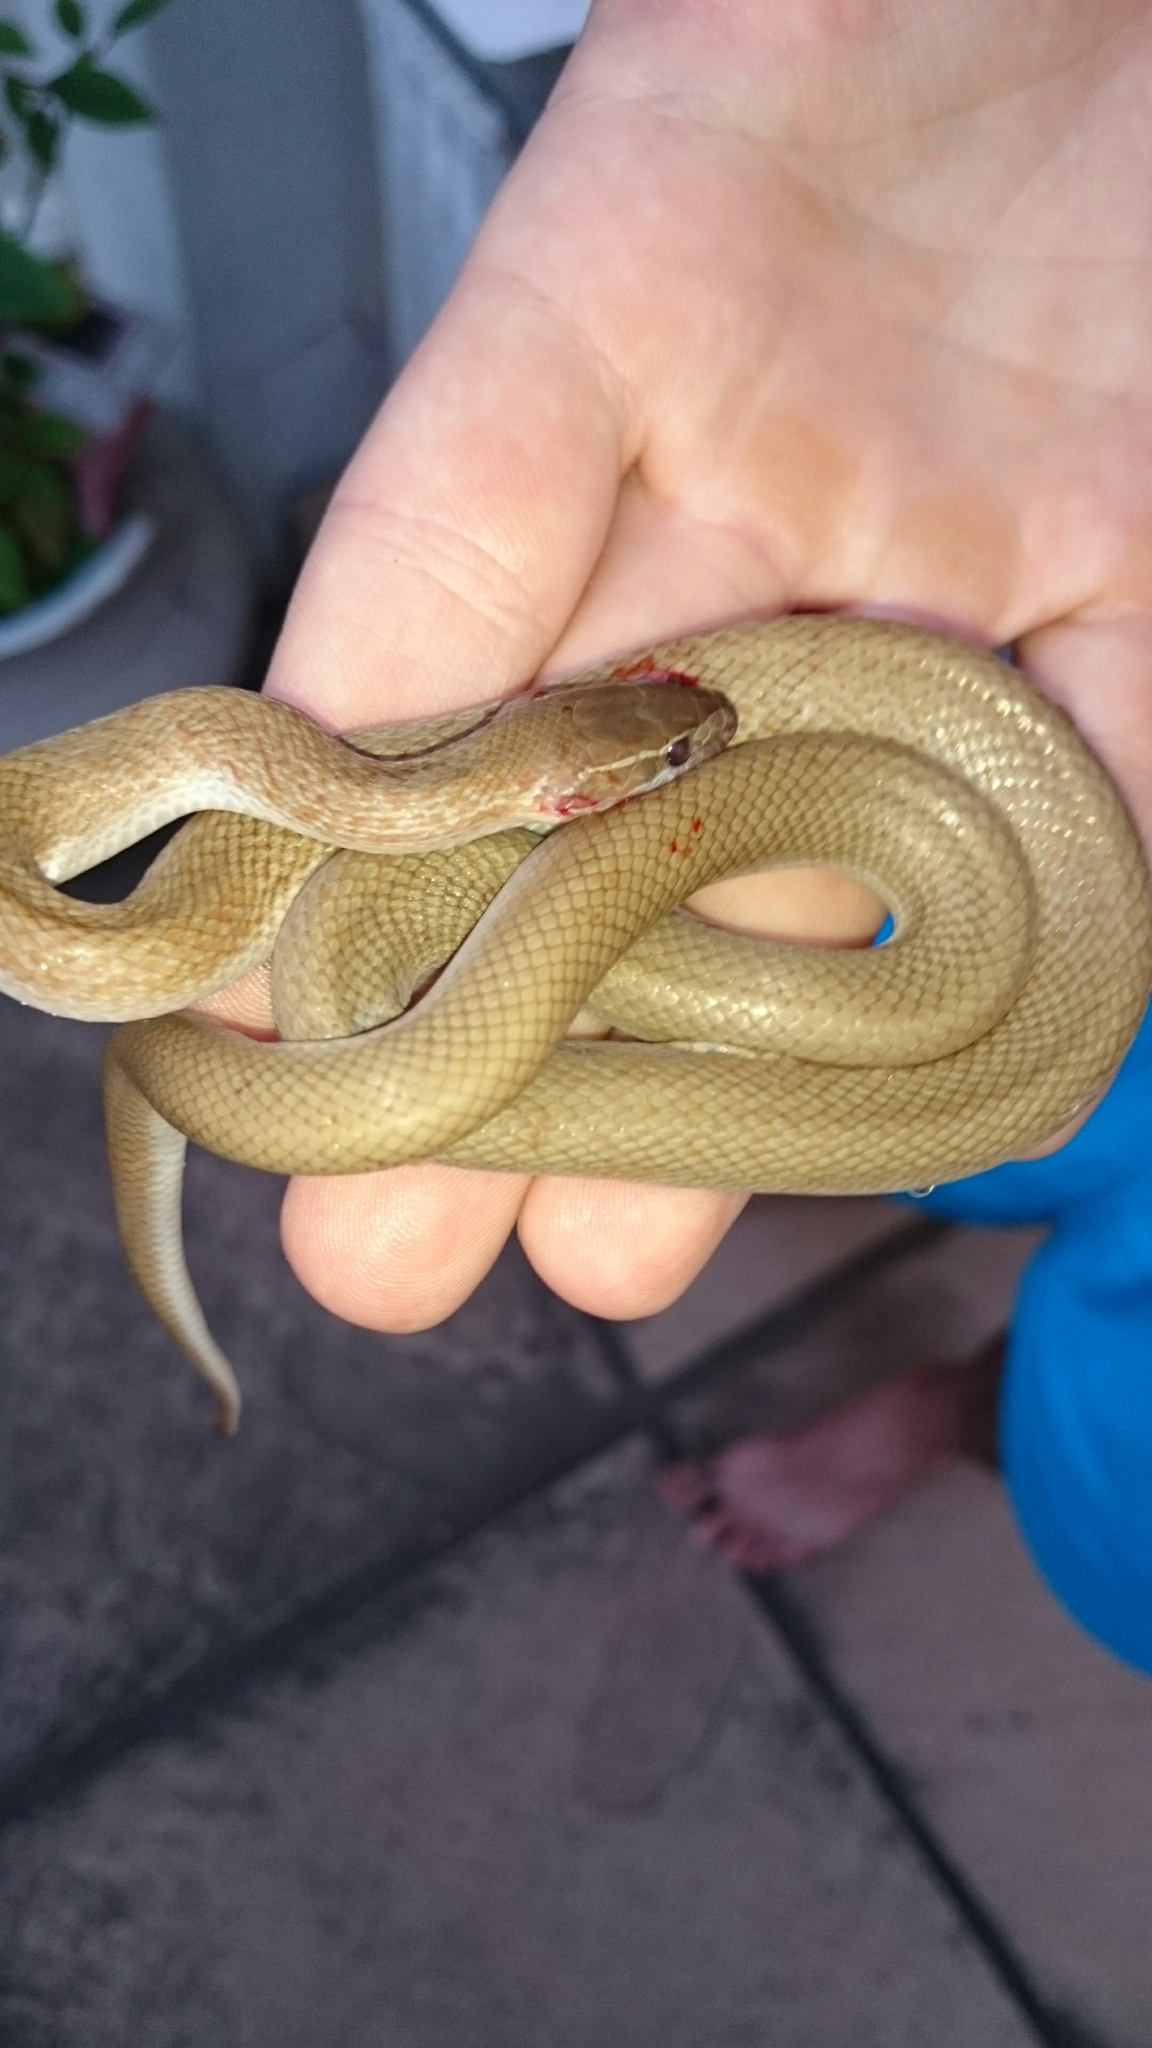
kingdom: Animalia
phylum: Chordata
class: Squamata
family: Lamprophiidae
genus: Boaedon
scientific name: Boaedon capensis
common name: Brown house snake
